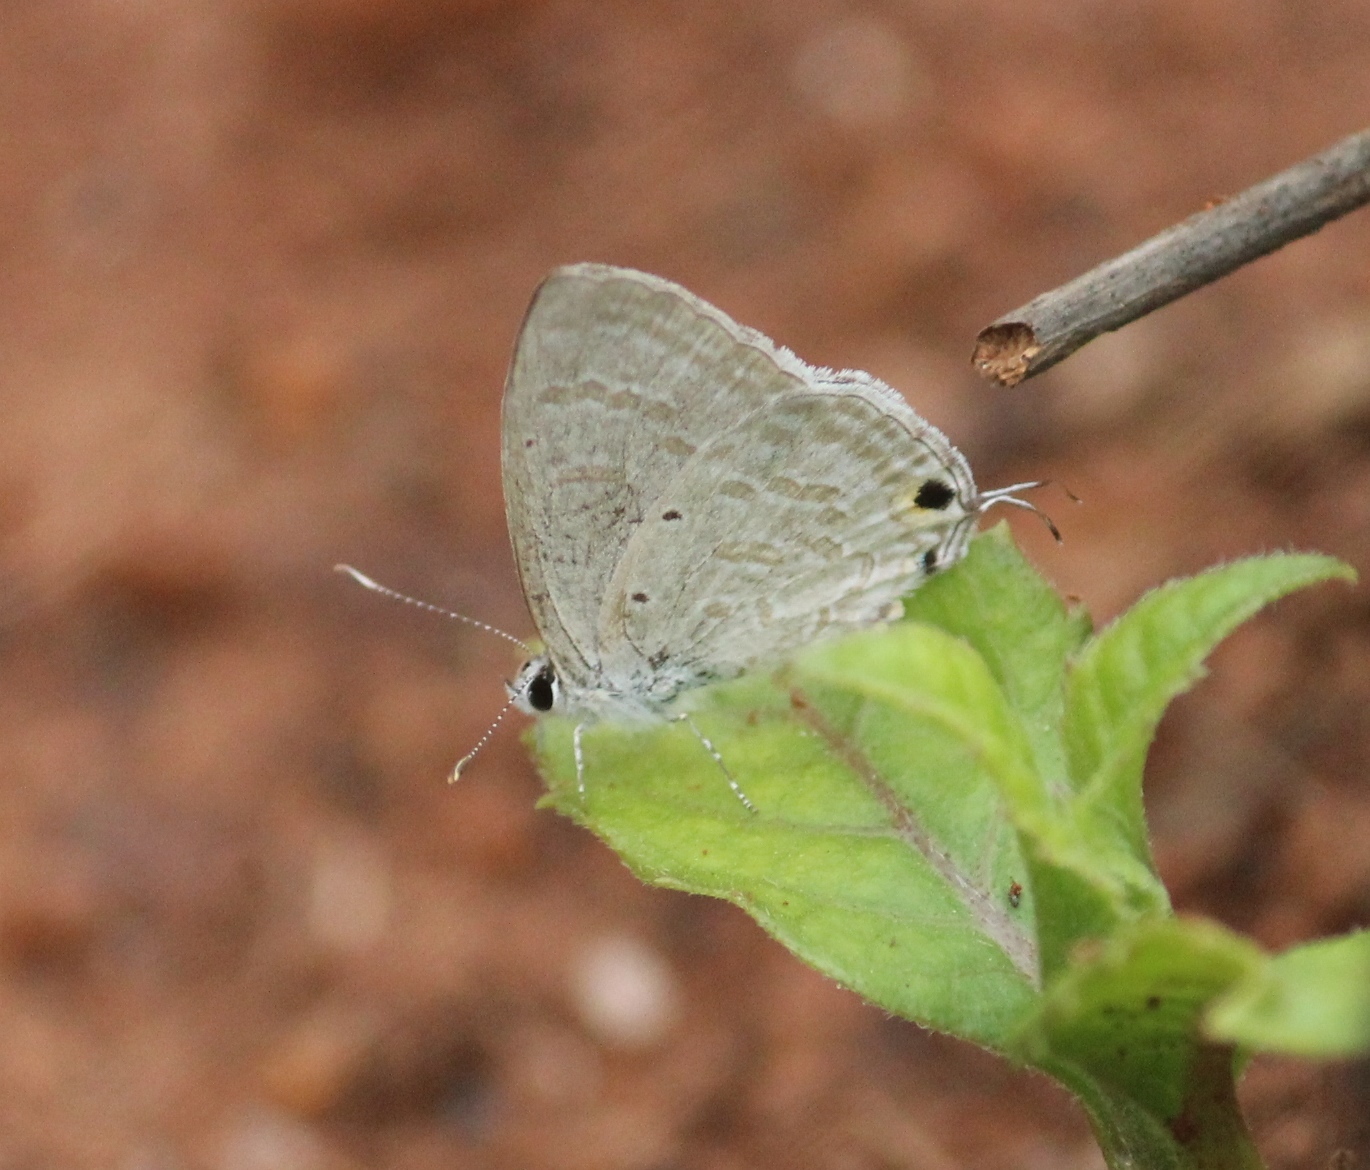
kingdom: Animalia
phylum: Arthropoda
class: Insecta
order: Lepidoptera
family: Lycaenidae
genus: Catochrysops
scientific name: Catochrysops strabo
